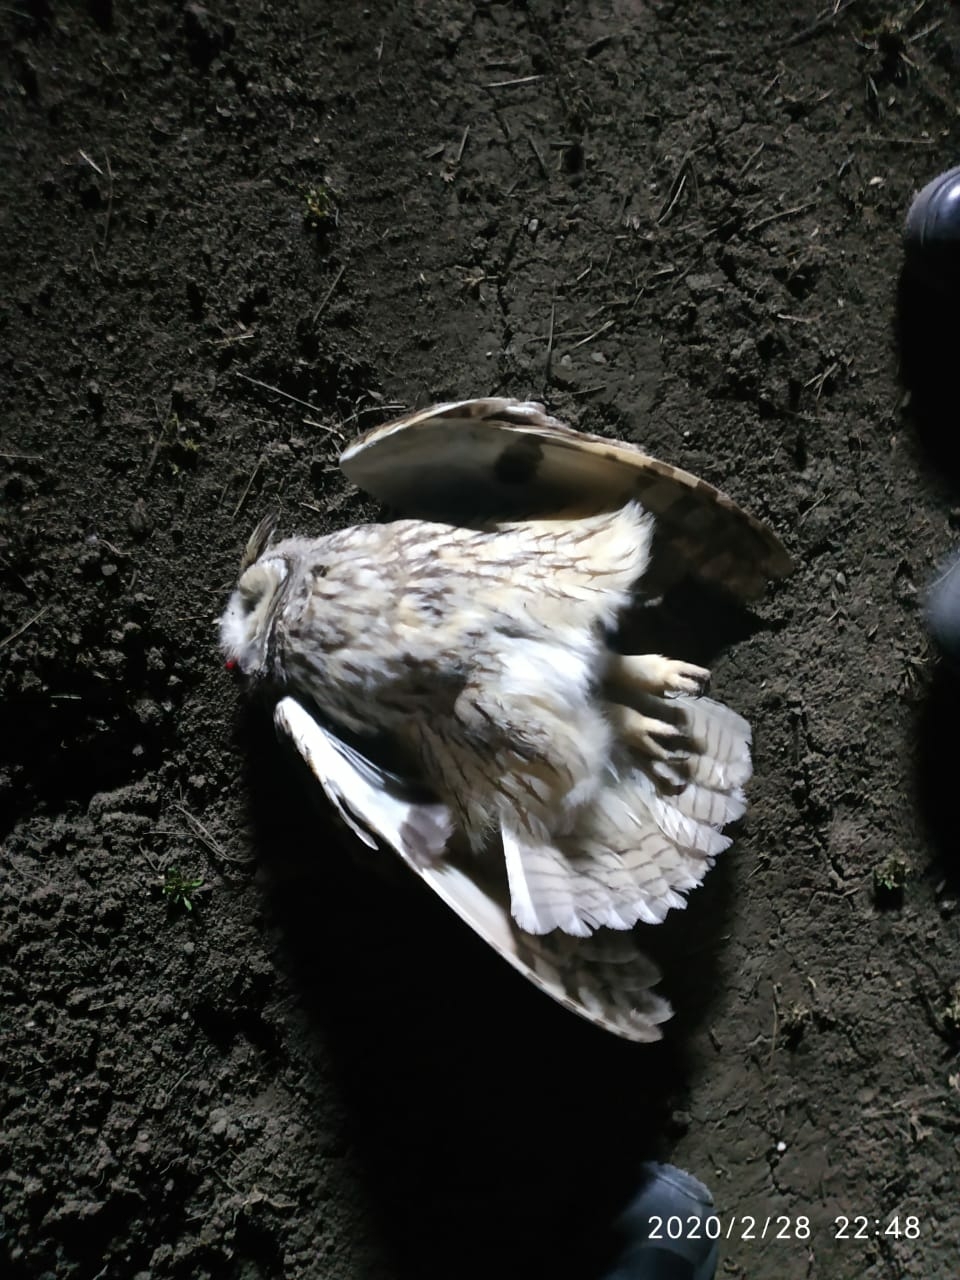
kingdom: Animalia
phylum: Chordata
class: Aves
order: Strigiformes
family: Strigidae
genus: Asio
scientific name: Asio otus
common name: Long-eared owl
